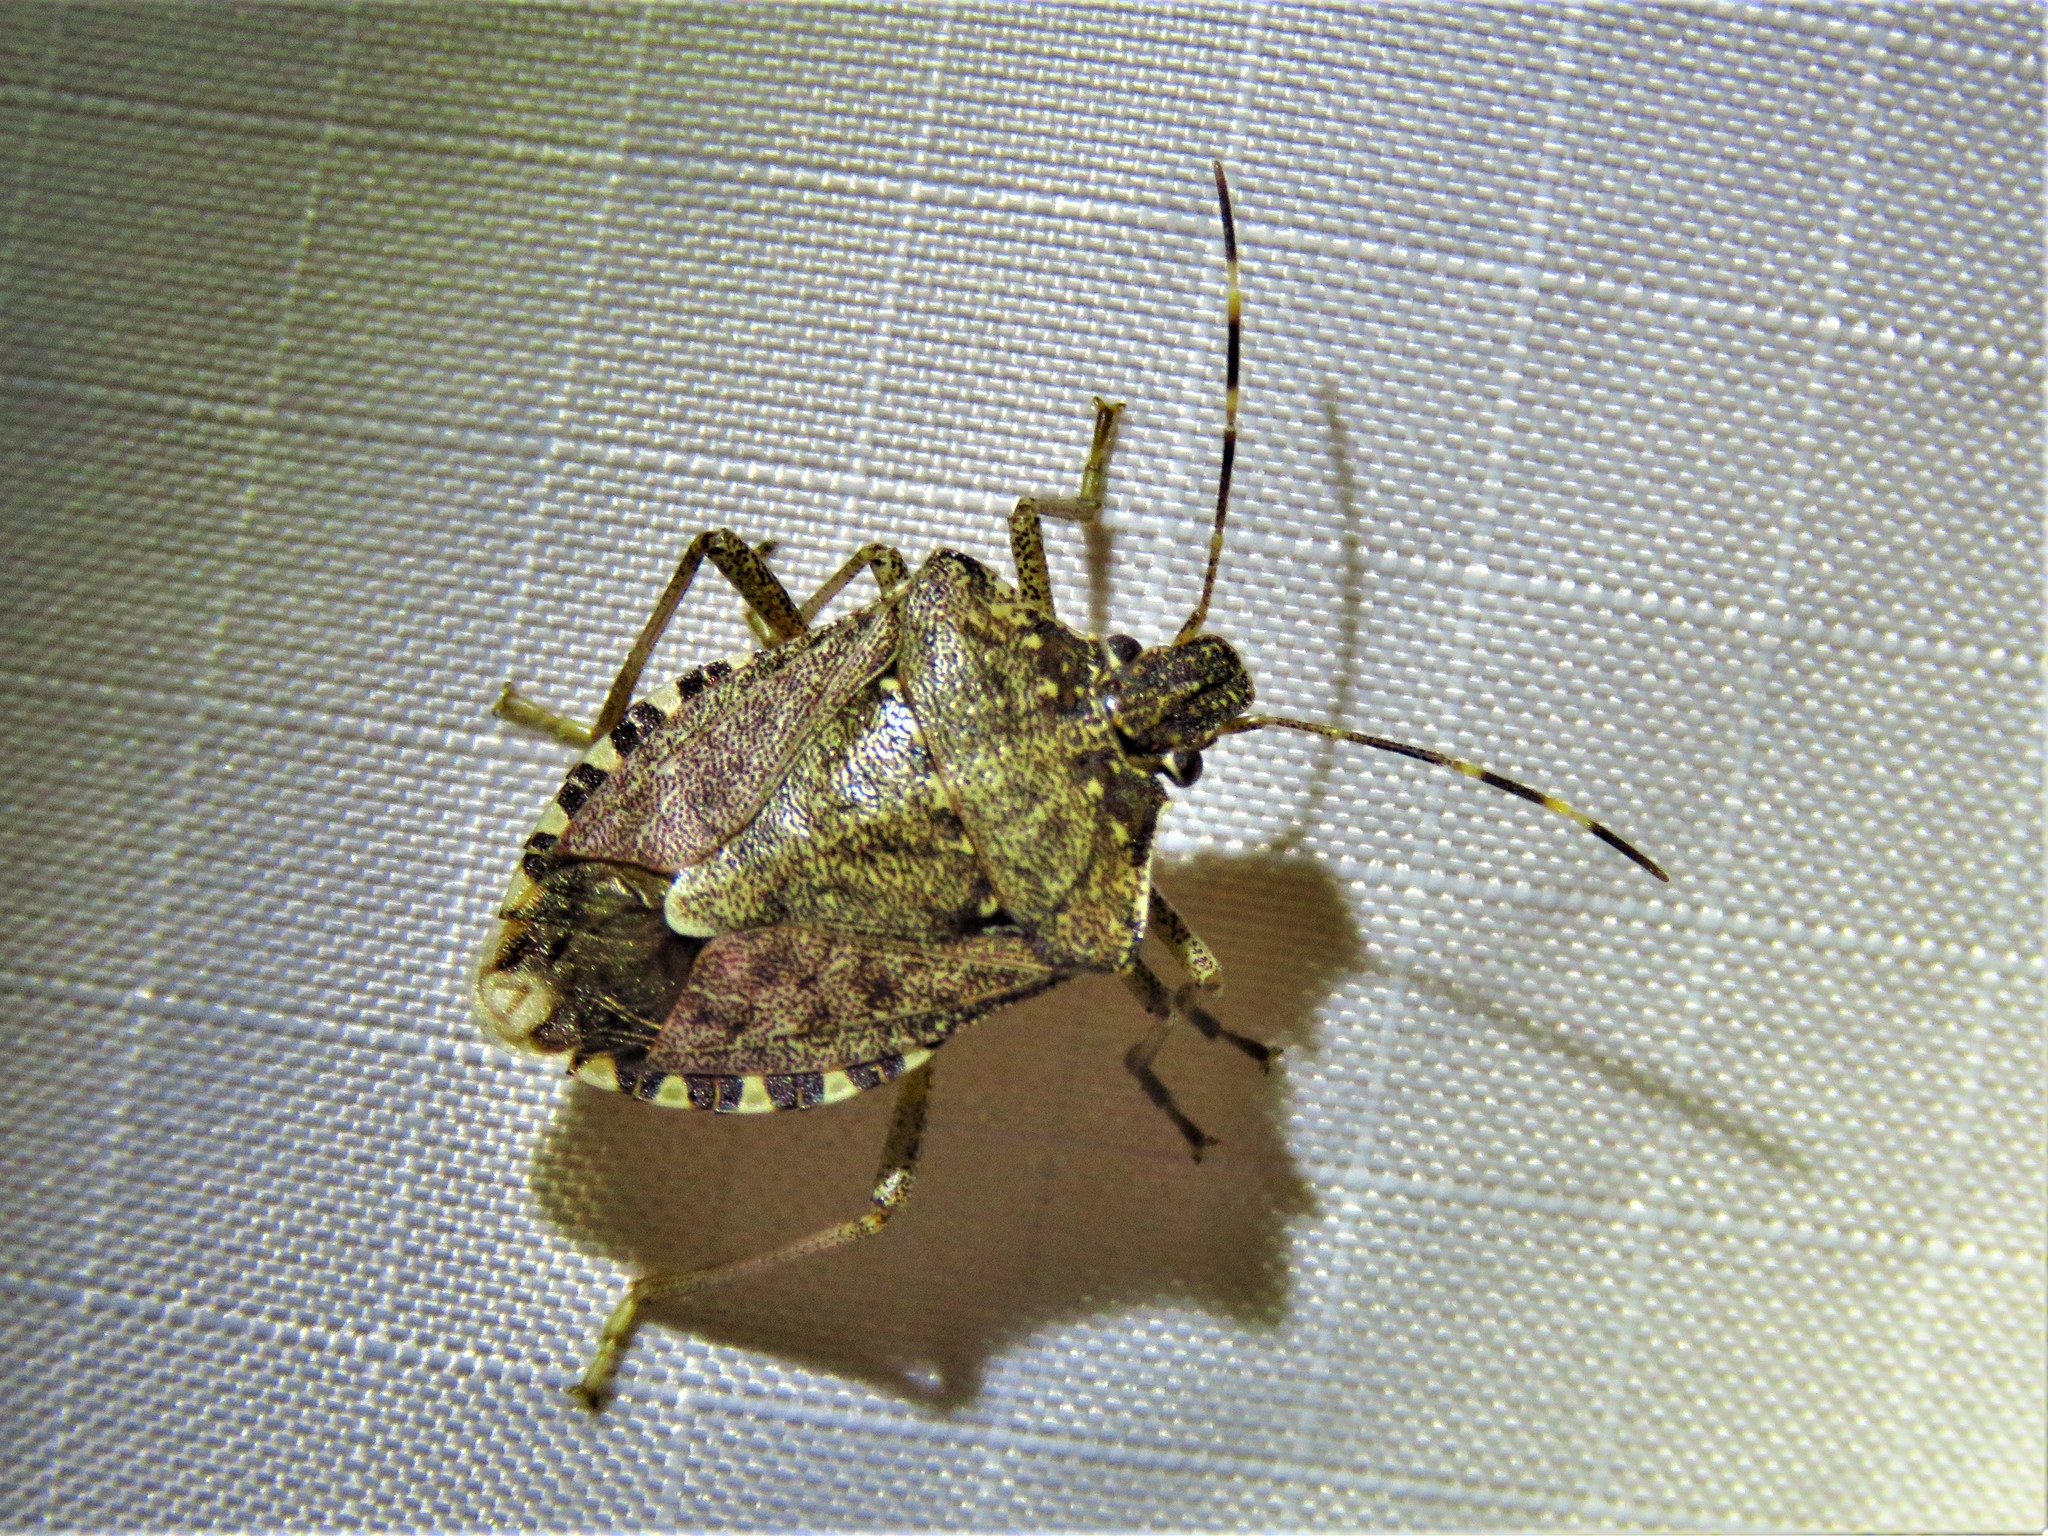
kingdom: Animalia
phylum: Arthropoda
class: Insecta
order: Hemiptera
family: Pentatomidae
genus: Halyomorpha
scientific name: Halyomorpha halys
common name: Brown marmorated stink bug
